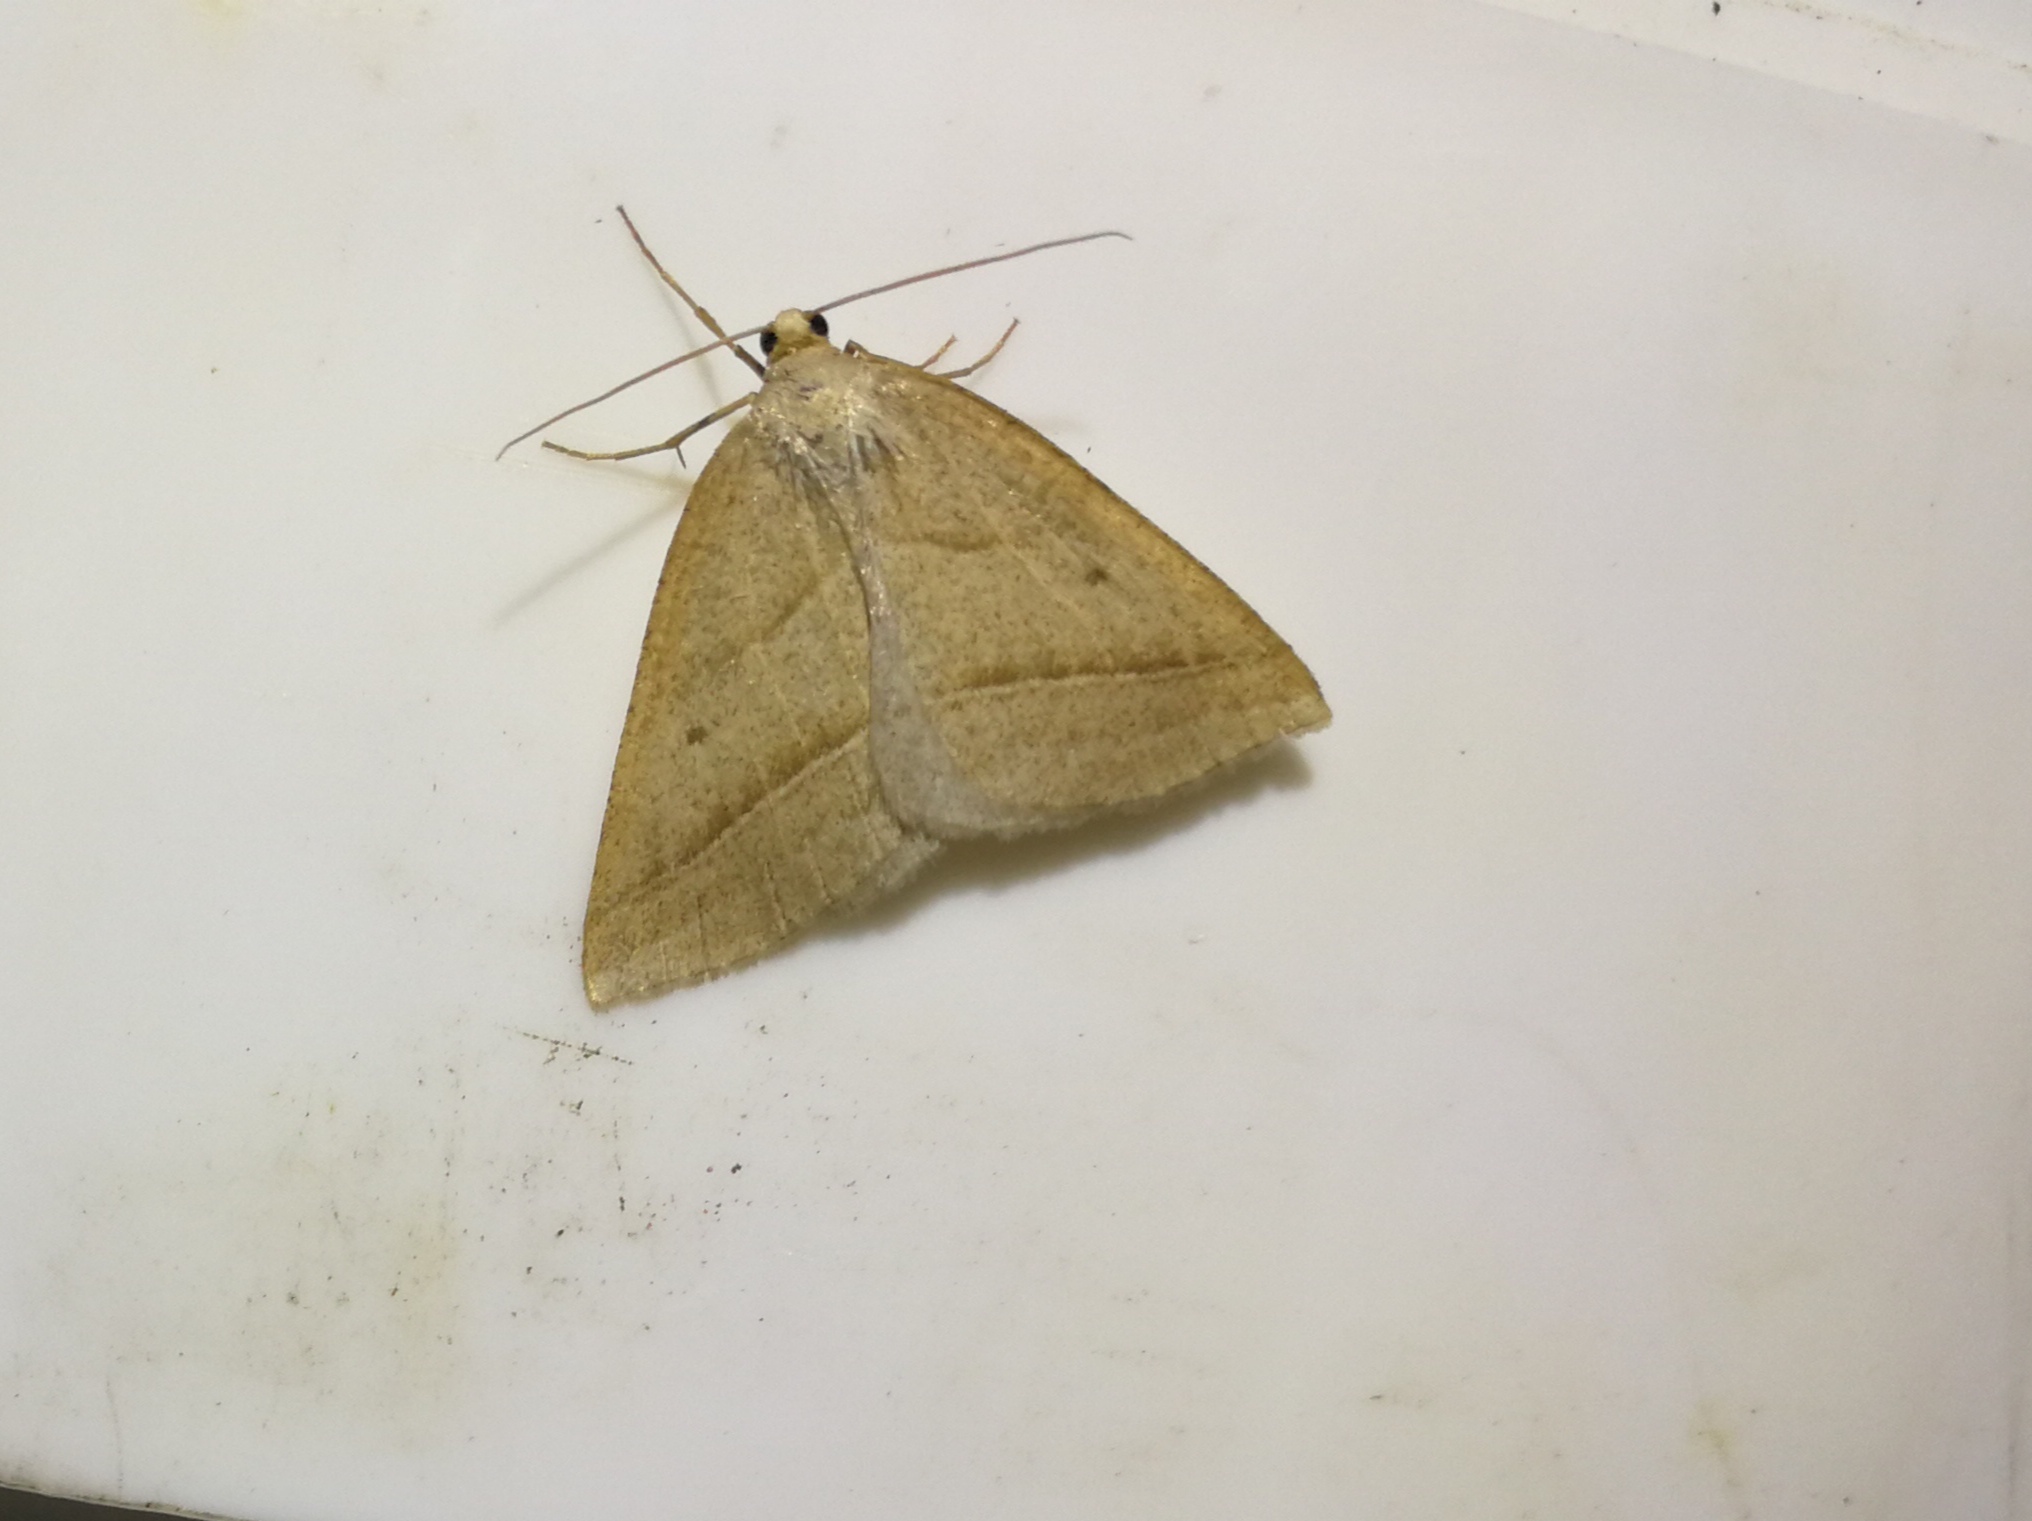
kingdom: Animalia
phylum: Arthropoda
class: Insecta
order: Lepidoptera
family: Pterophoridae
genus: Pterophorus
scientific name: Pterophorus Petrophora chlorosata
